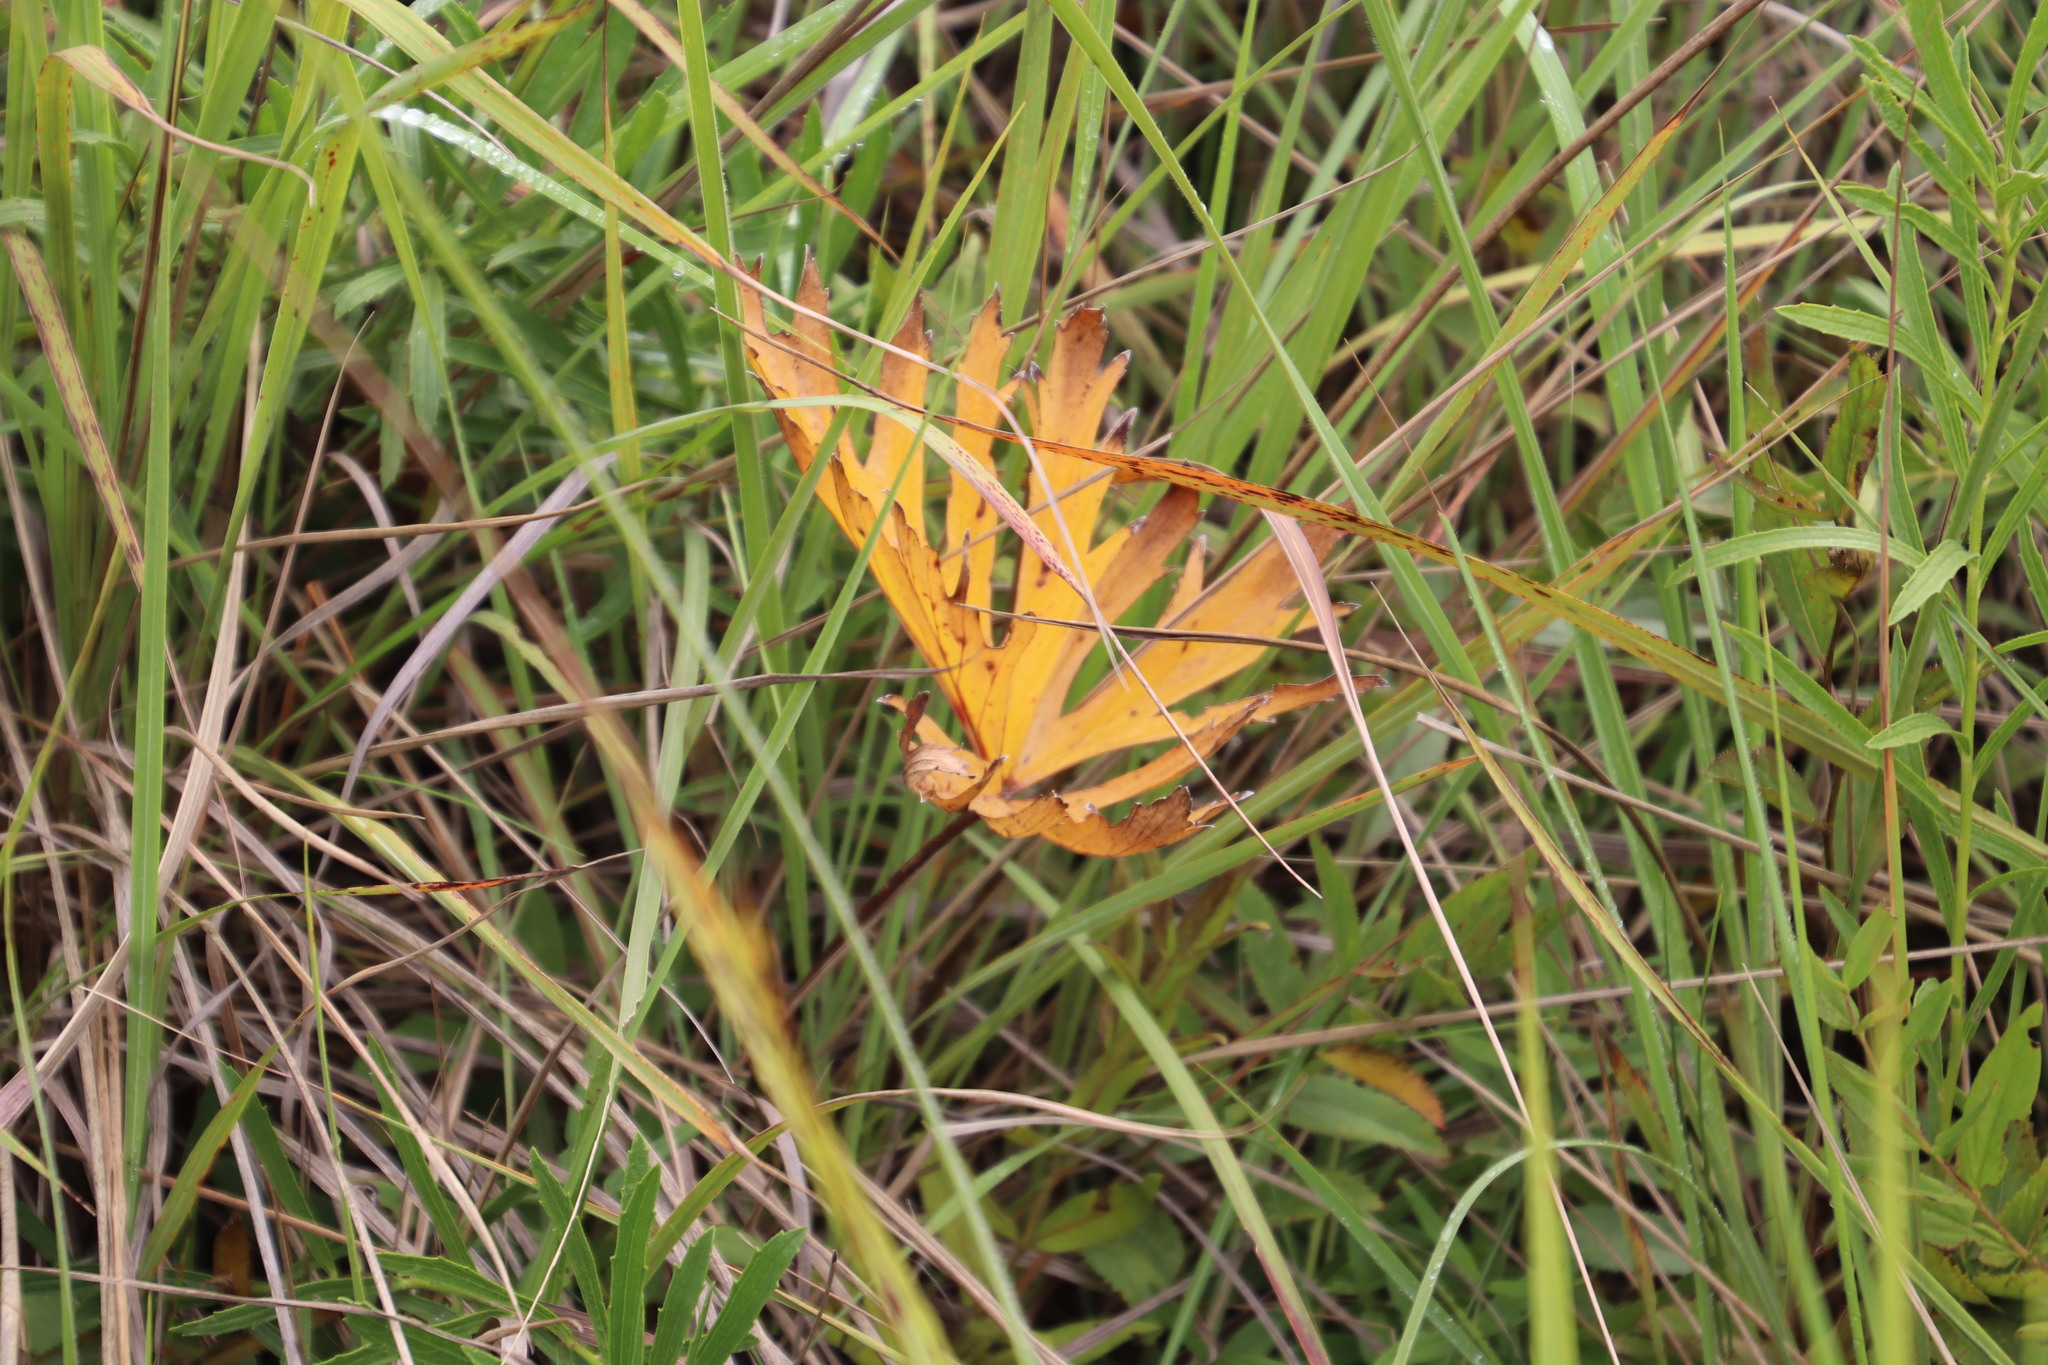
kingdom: Plantae
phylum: Tracheophyta
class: Magnoliopsida
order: Geraniales
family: Geraniaceae
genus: Pelargonium
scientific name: Pelargonium luridum
